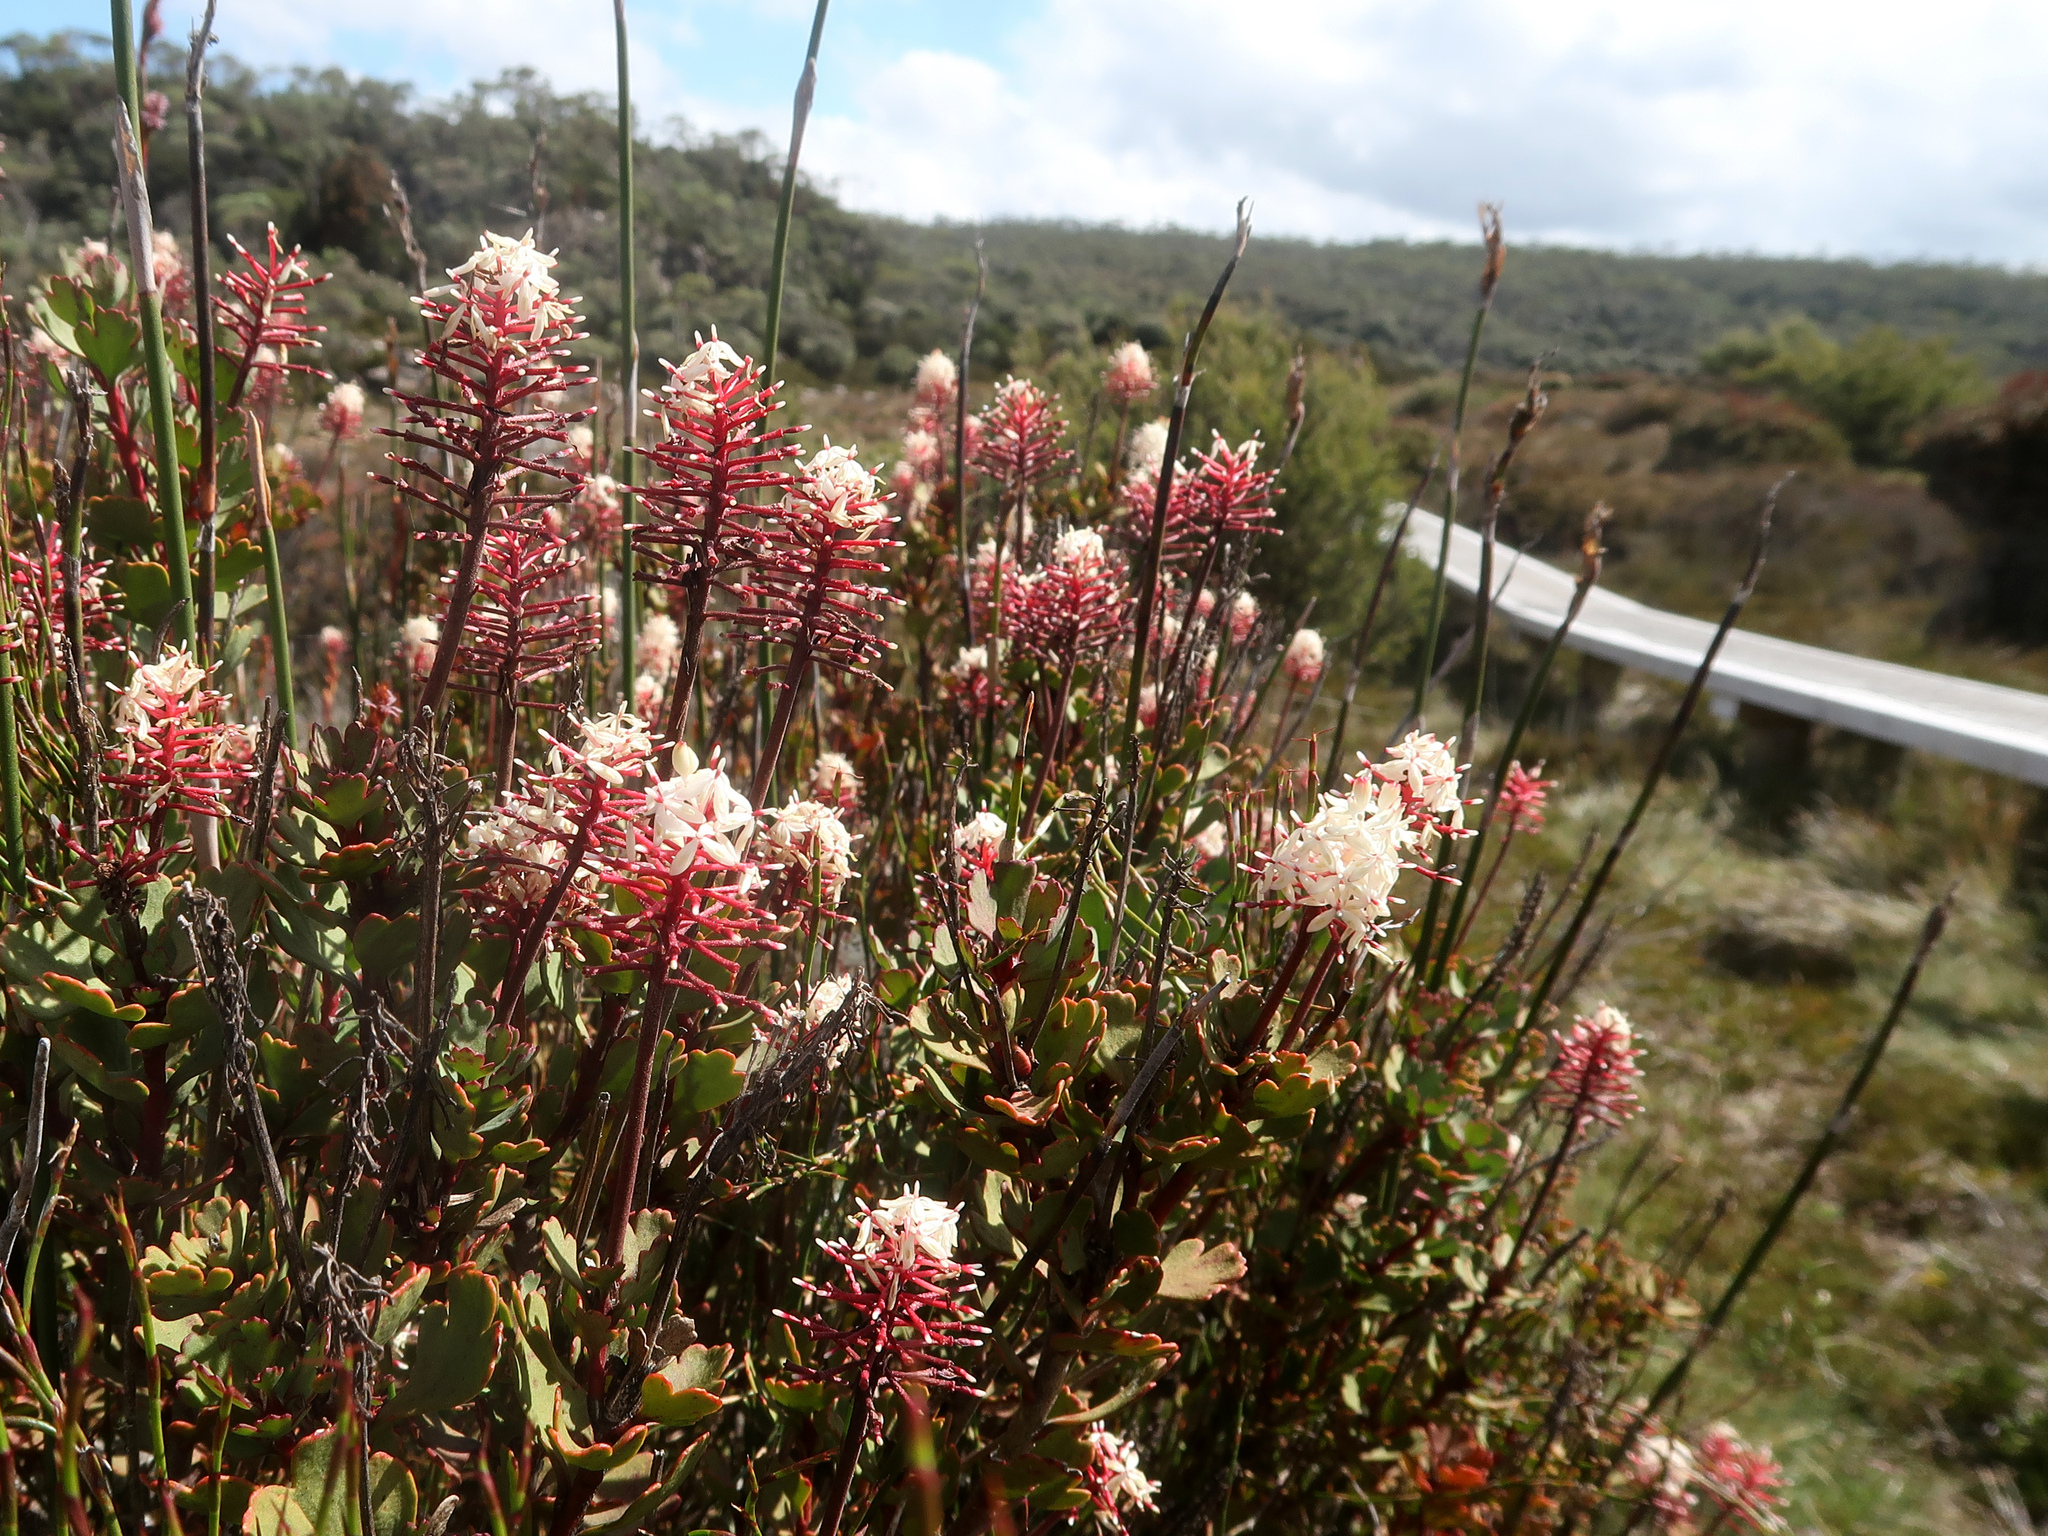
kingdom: Plantae
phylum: Tracheophyta
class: Magnoliopsida
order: Proteales
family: Proteaceae
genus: Bellendena
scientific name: Bellendena montana
